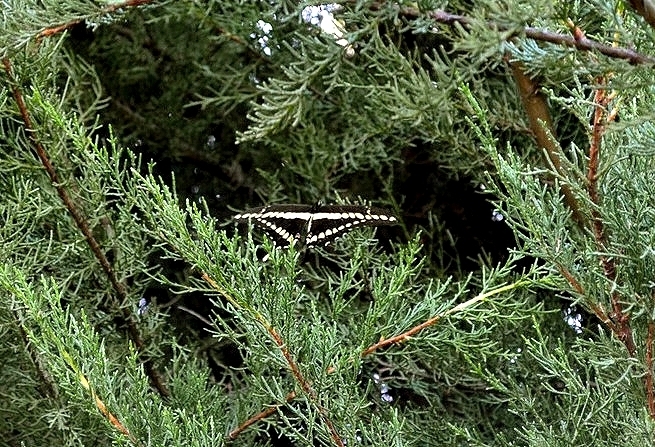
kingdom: Animalia
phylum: Arthropoda
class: Insecta
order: Lepidoptera
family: Papilionidae
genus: Papilio
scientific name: Papilio thoas
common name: King swallowtail
